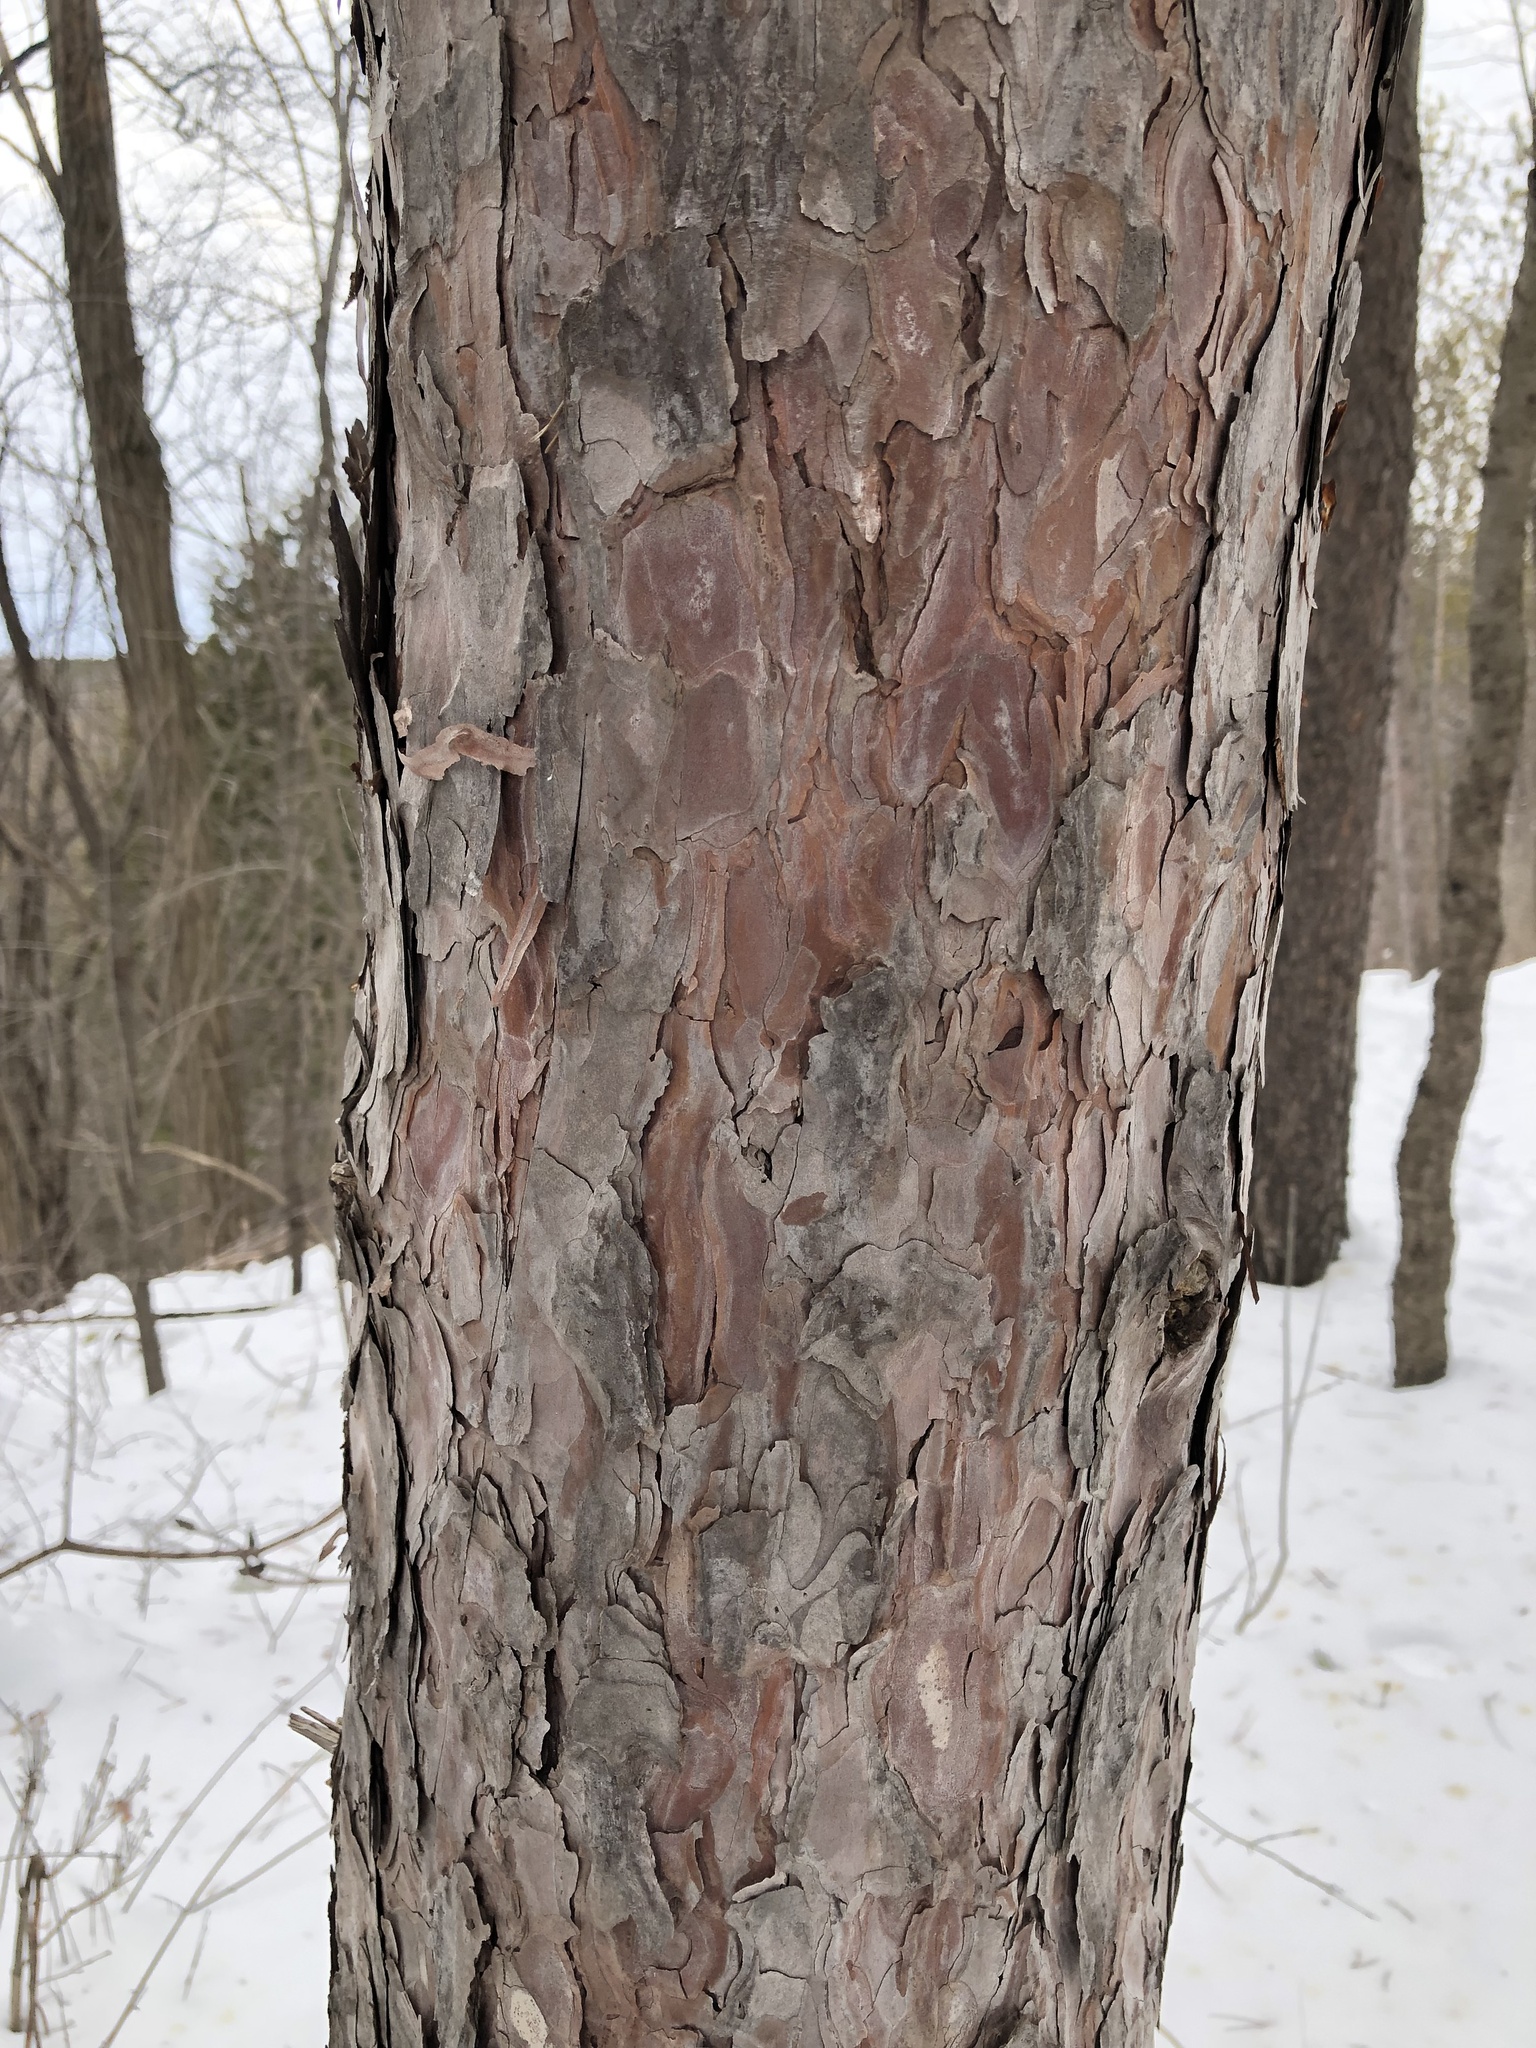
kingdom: Plantae
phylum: Tracheophyta
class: Pinopsida
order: Pinales
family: Pinaceae
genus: Pinus
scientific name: Pinus resinosa
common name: Norway pine
